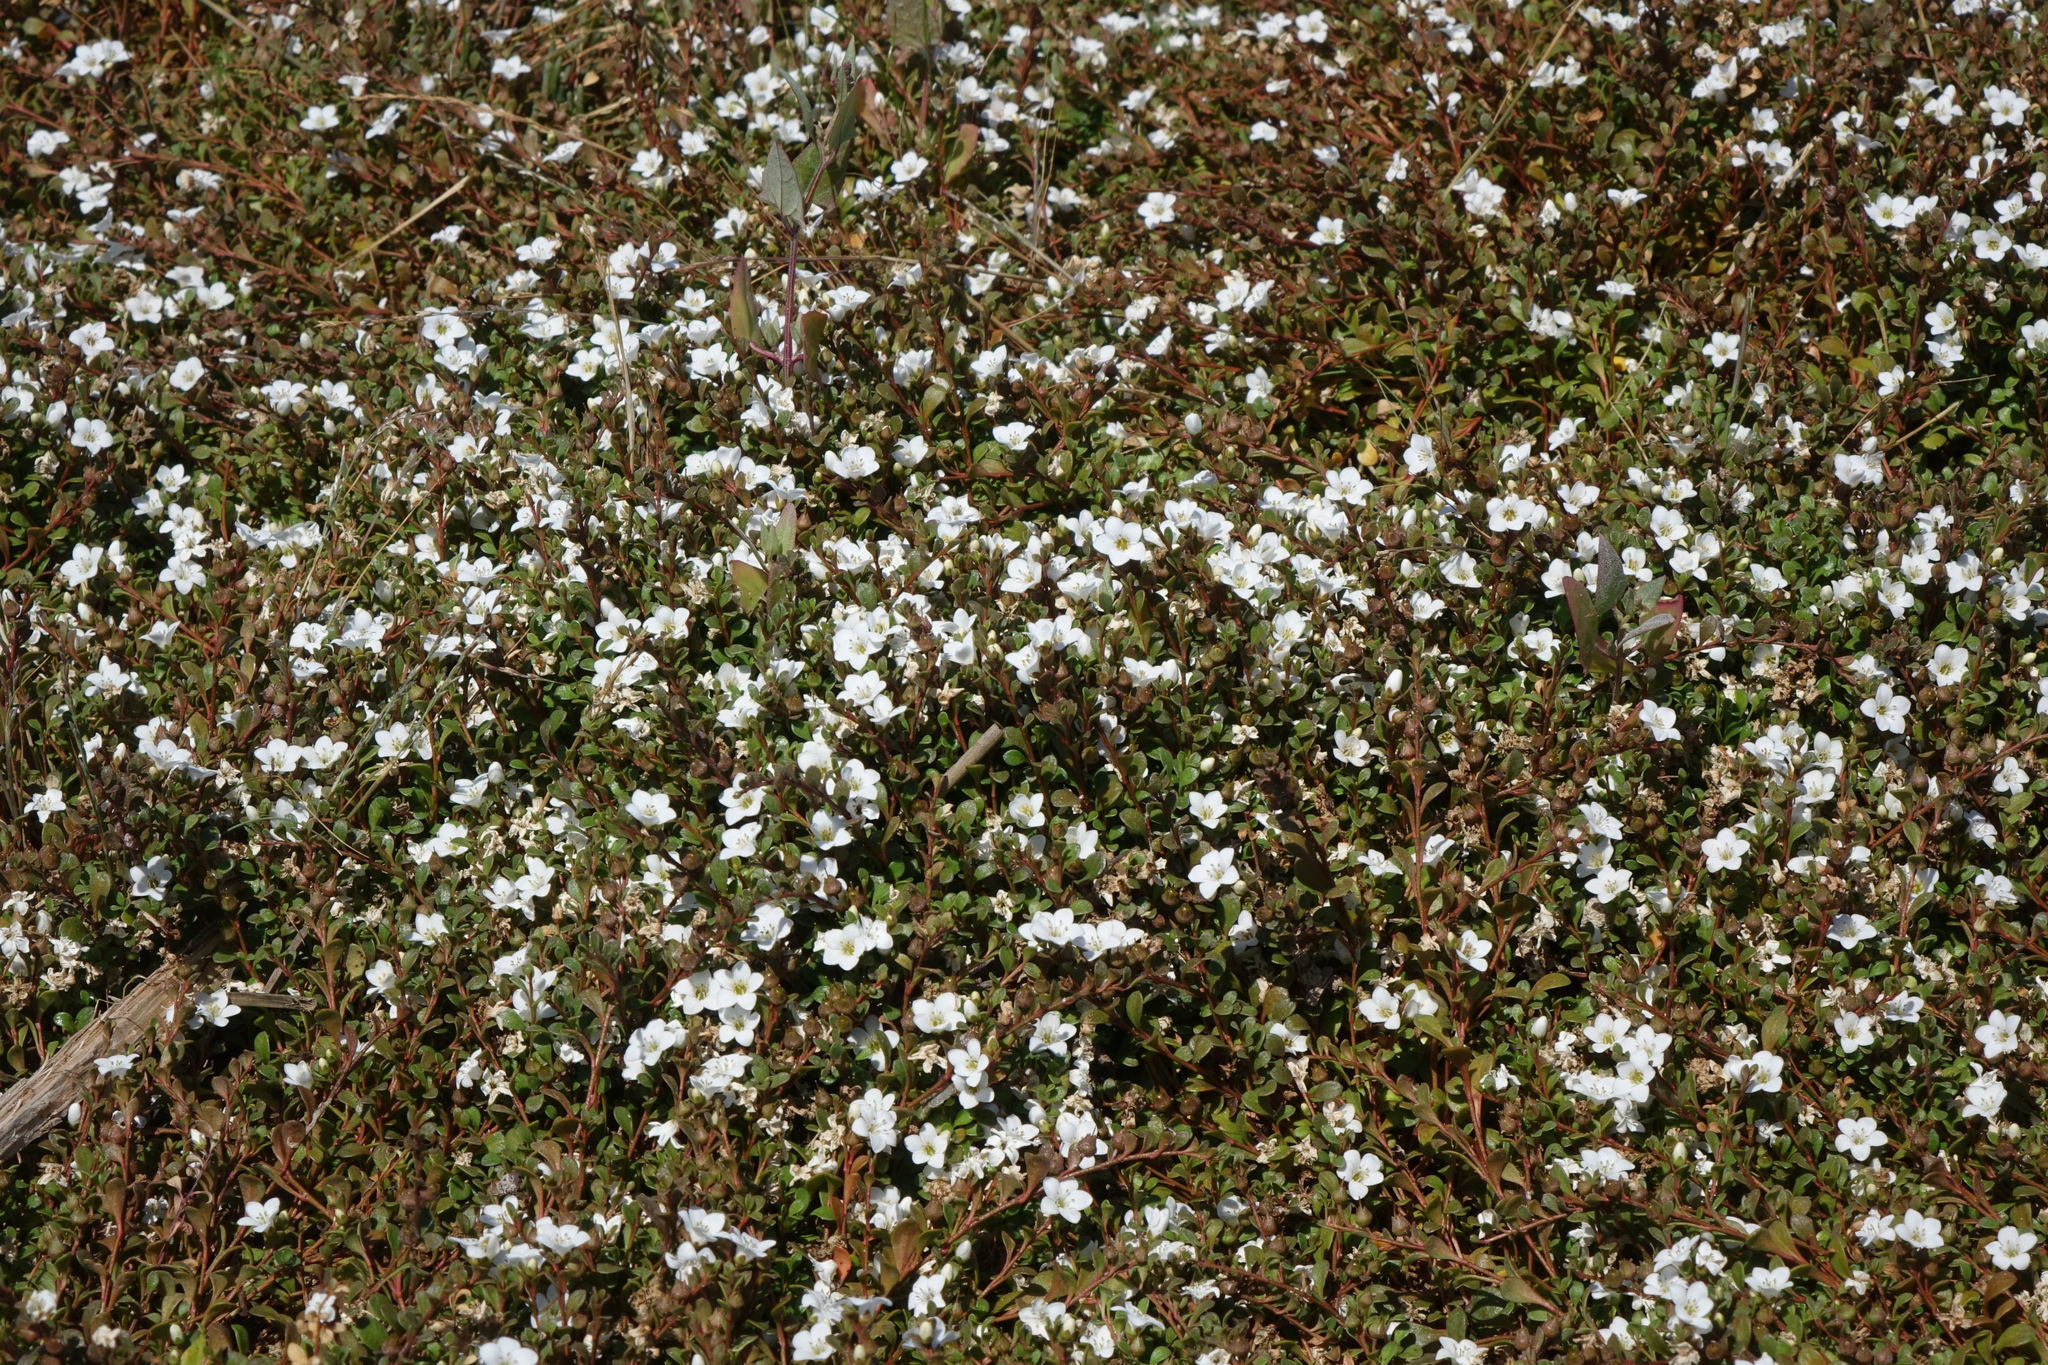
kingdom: Plantae
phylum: Tracheophyta
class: Magnoliopsida
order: Ericales
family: Primulaceae
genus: Samolus
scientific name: Samolus repens
